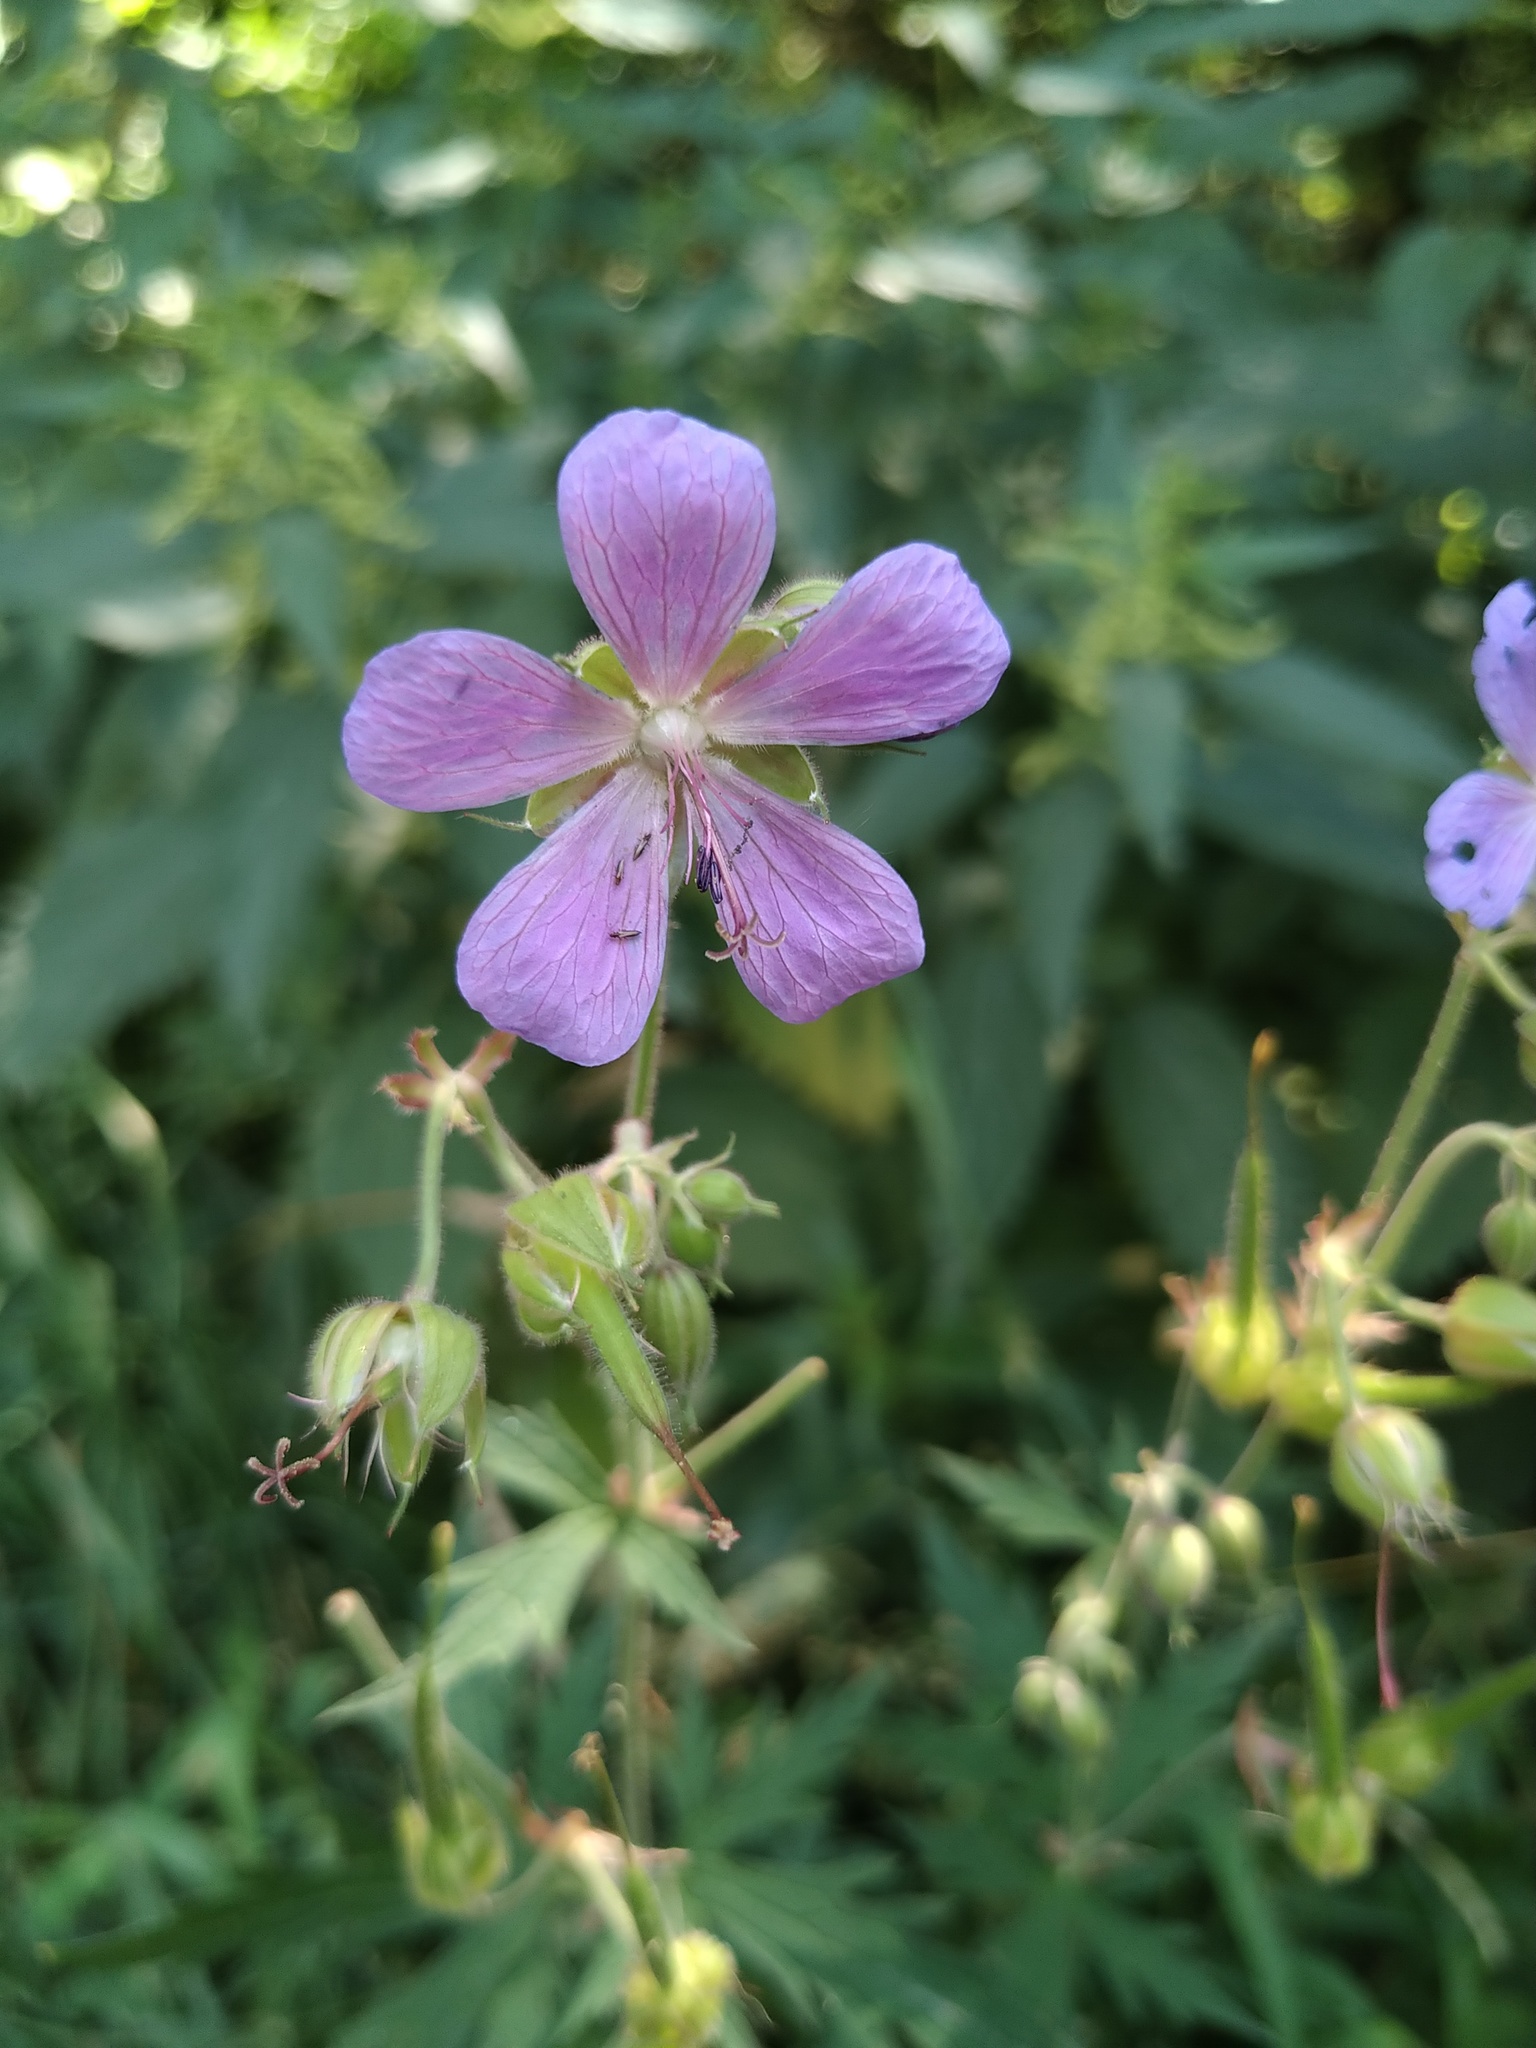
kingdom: Plantae
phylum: Tracheophyta
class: Magnoliopsida
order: Geraniales
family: Geraniaceae
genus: Geranium
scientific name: Geranium pratense
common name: Meadow crane's-bill
